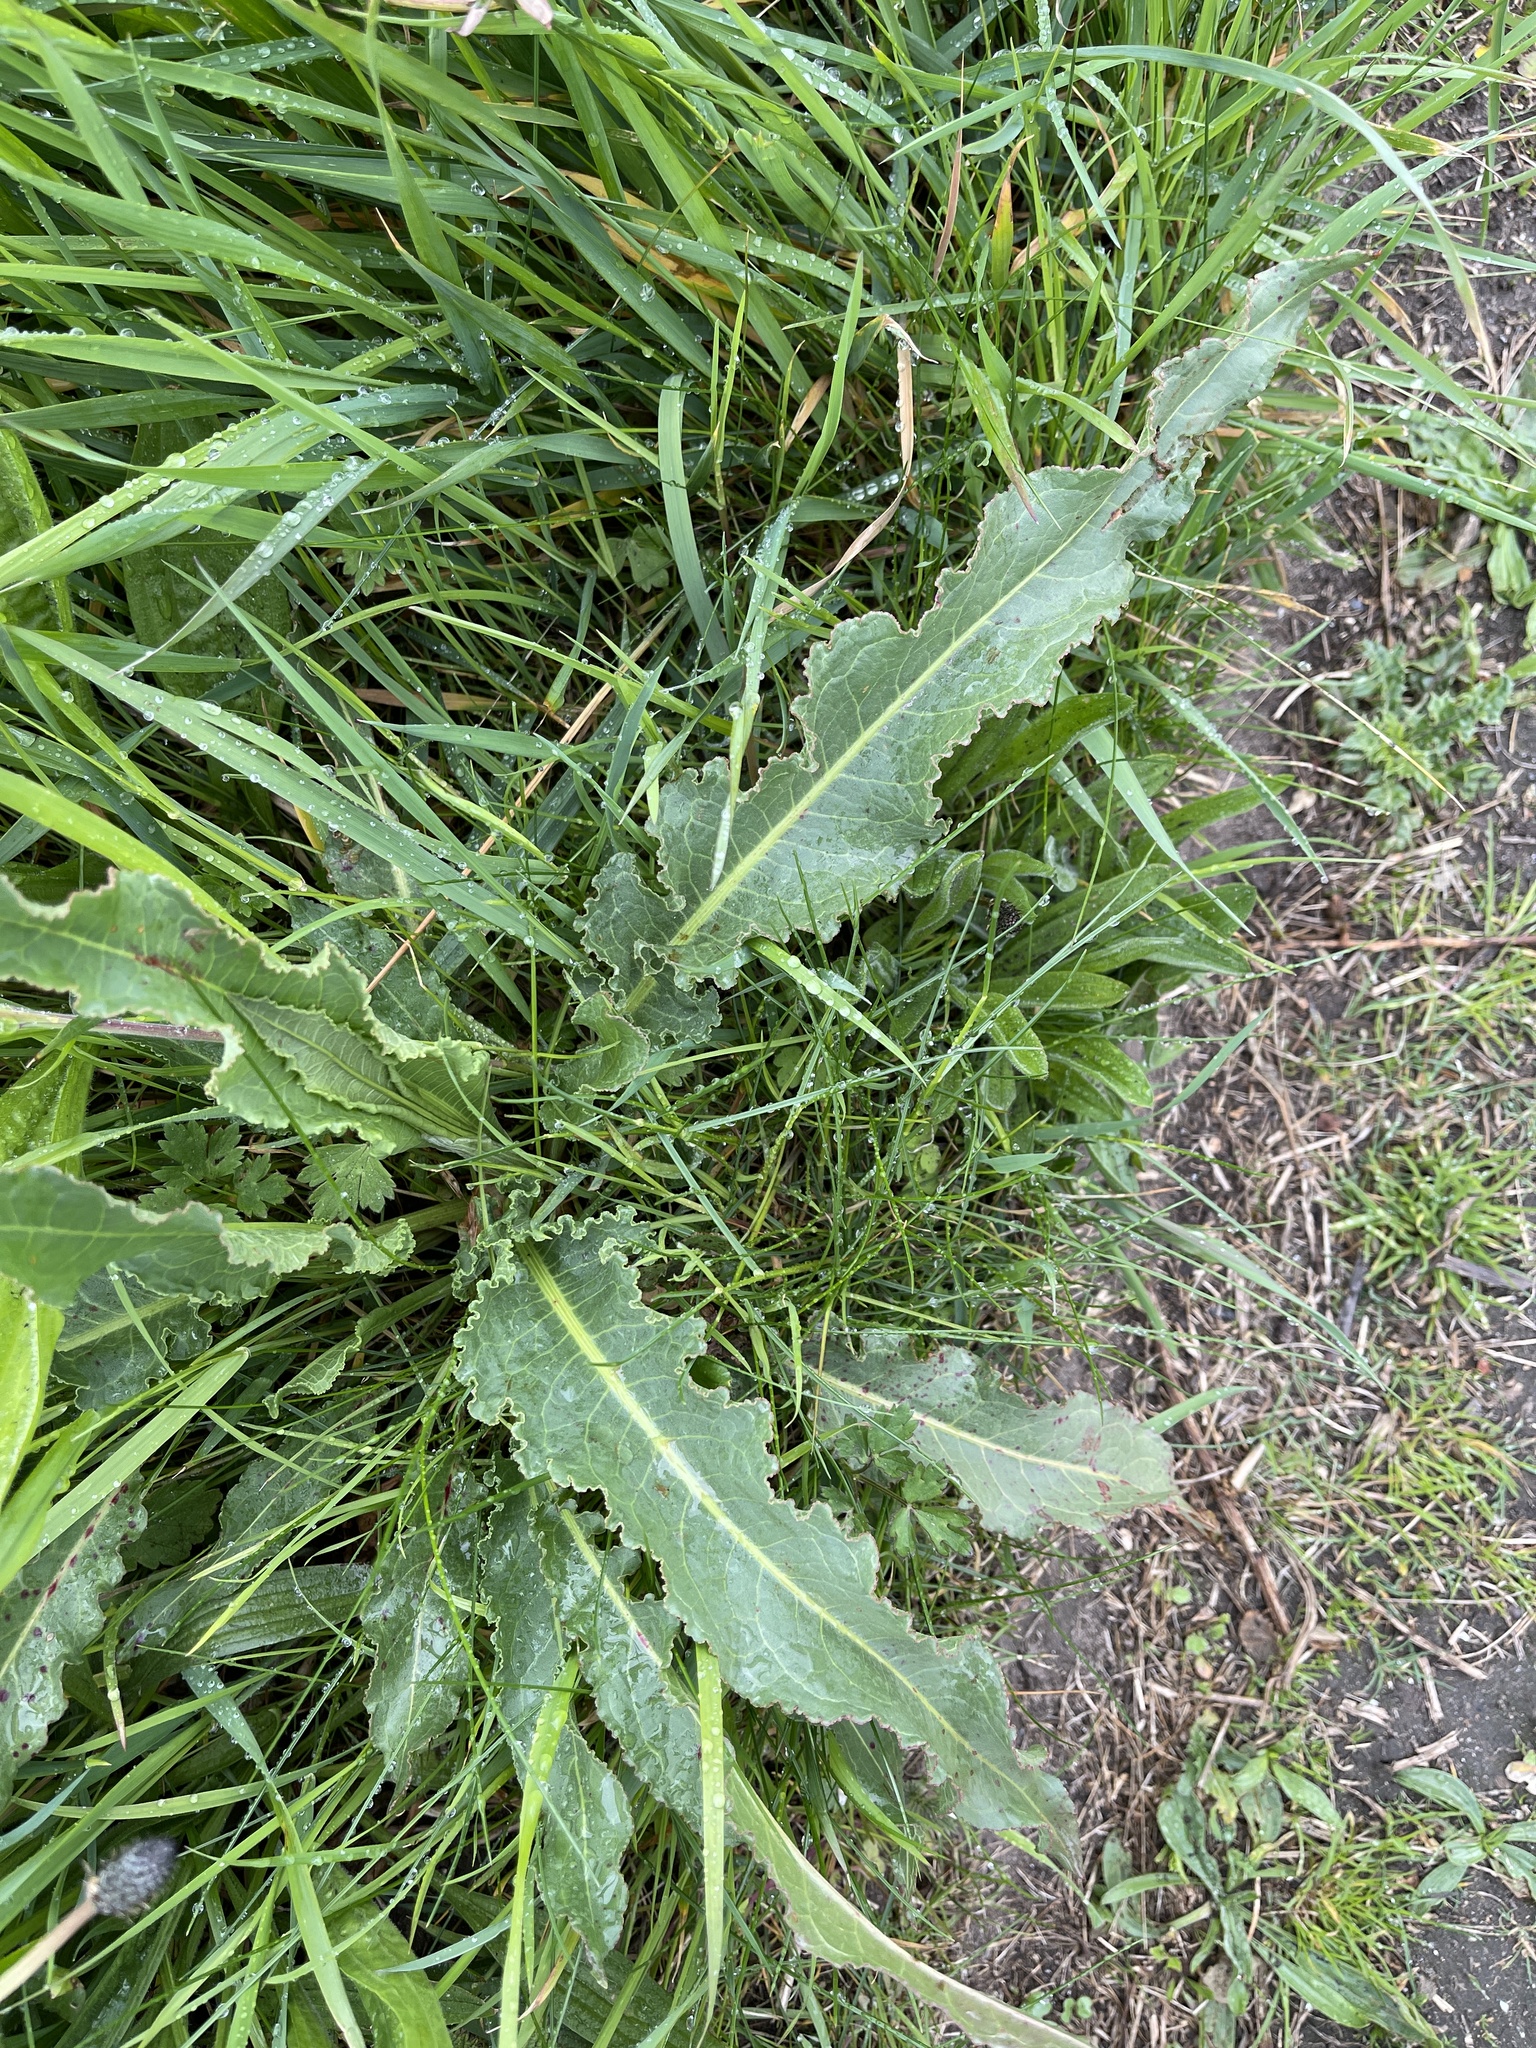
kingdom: Plantae
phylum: Tracheophyta
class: Magnoliopsida
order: Caryophyllales
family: Polygonaceae
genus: Rumex
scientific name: Rumex crispus
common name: Curled dock
